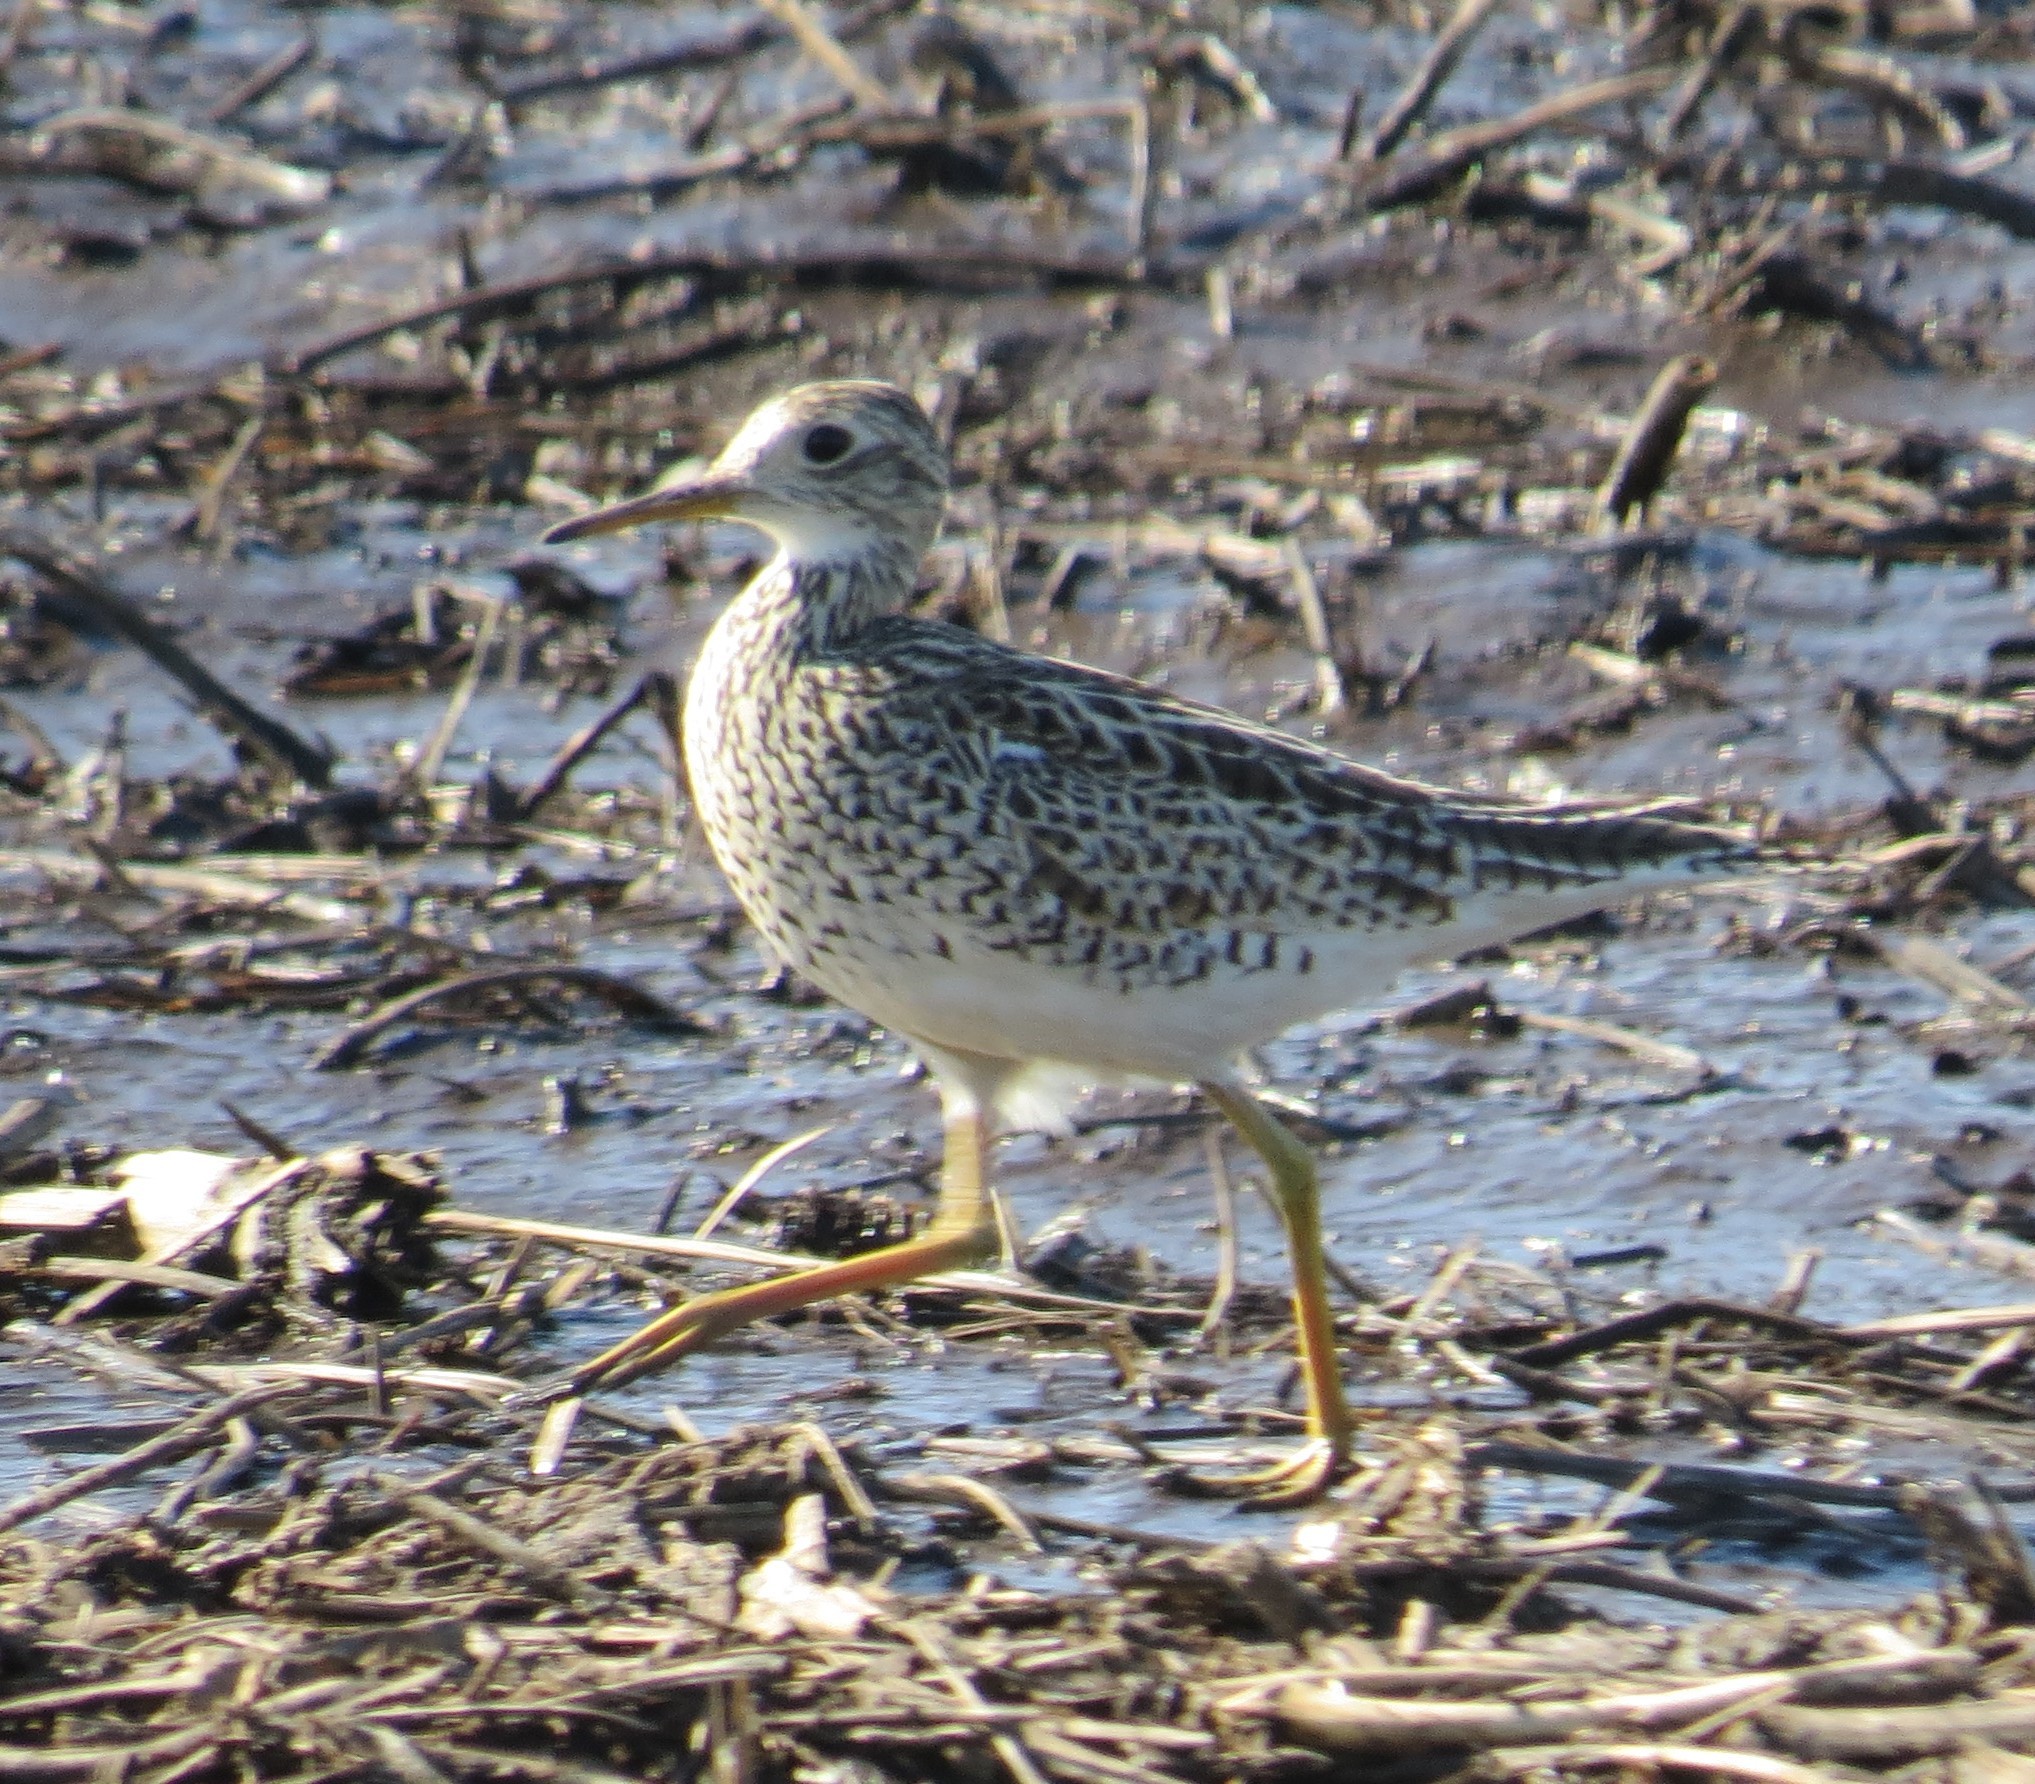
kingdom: Animalia
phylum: Chordata
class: Aves
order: Charadriiformes
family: Scolopacidae
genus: Bartramia
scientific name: Bartramia longicauda
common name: Upland sandpiper
